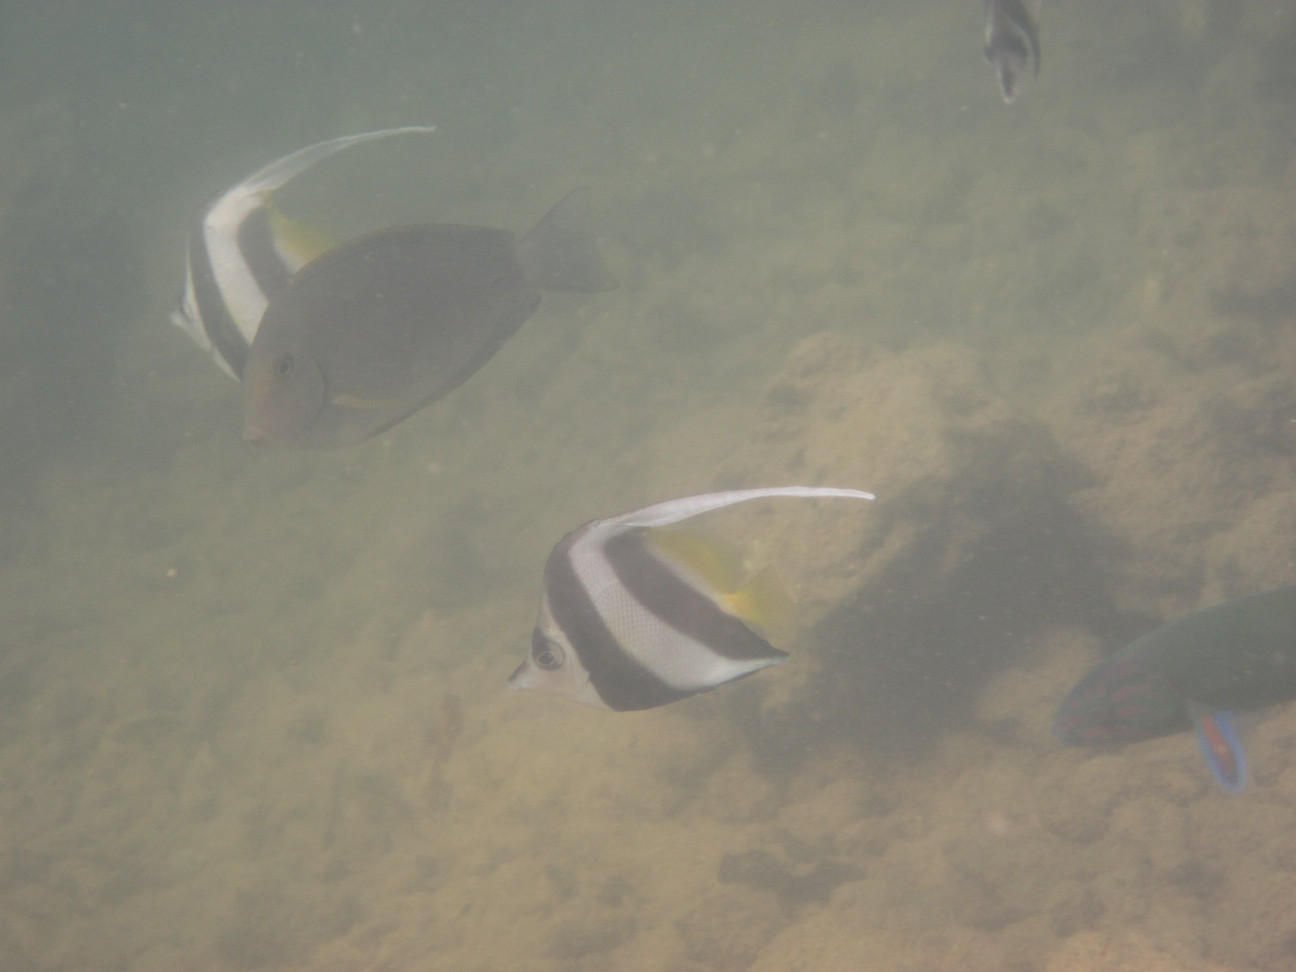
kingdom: Animalia
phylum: Chordata
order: Perciformes
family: Chaetodontidae
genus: Heniochus
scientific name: Heniochus acuminatus
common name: Pennant coralfish
